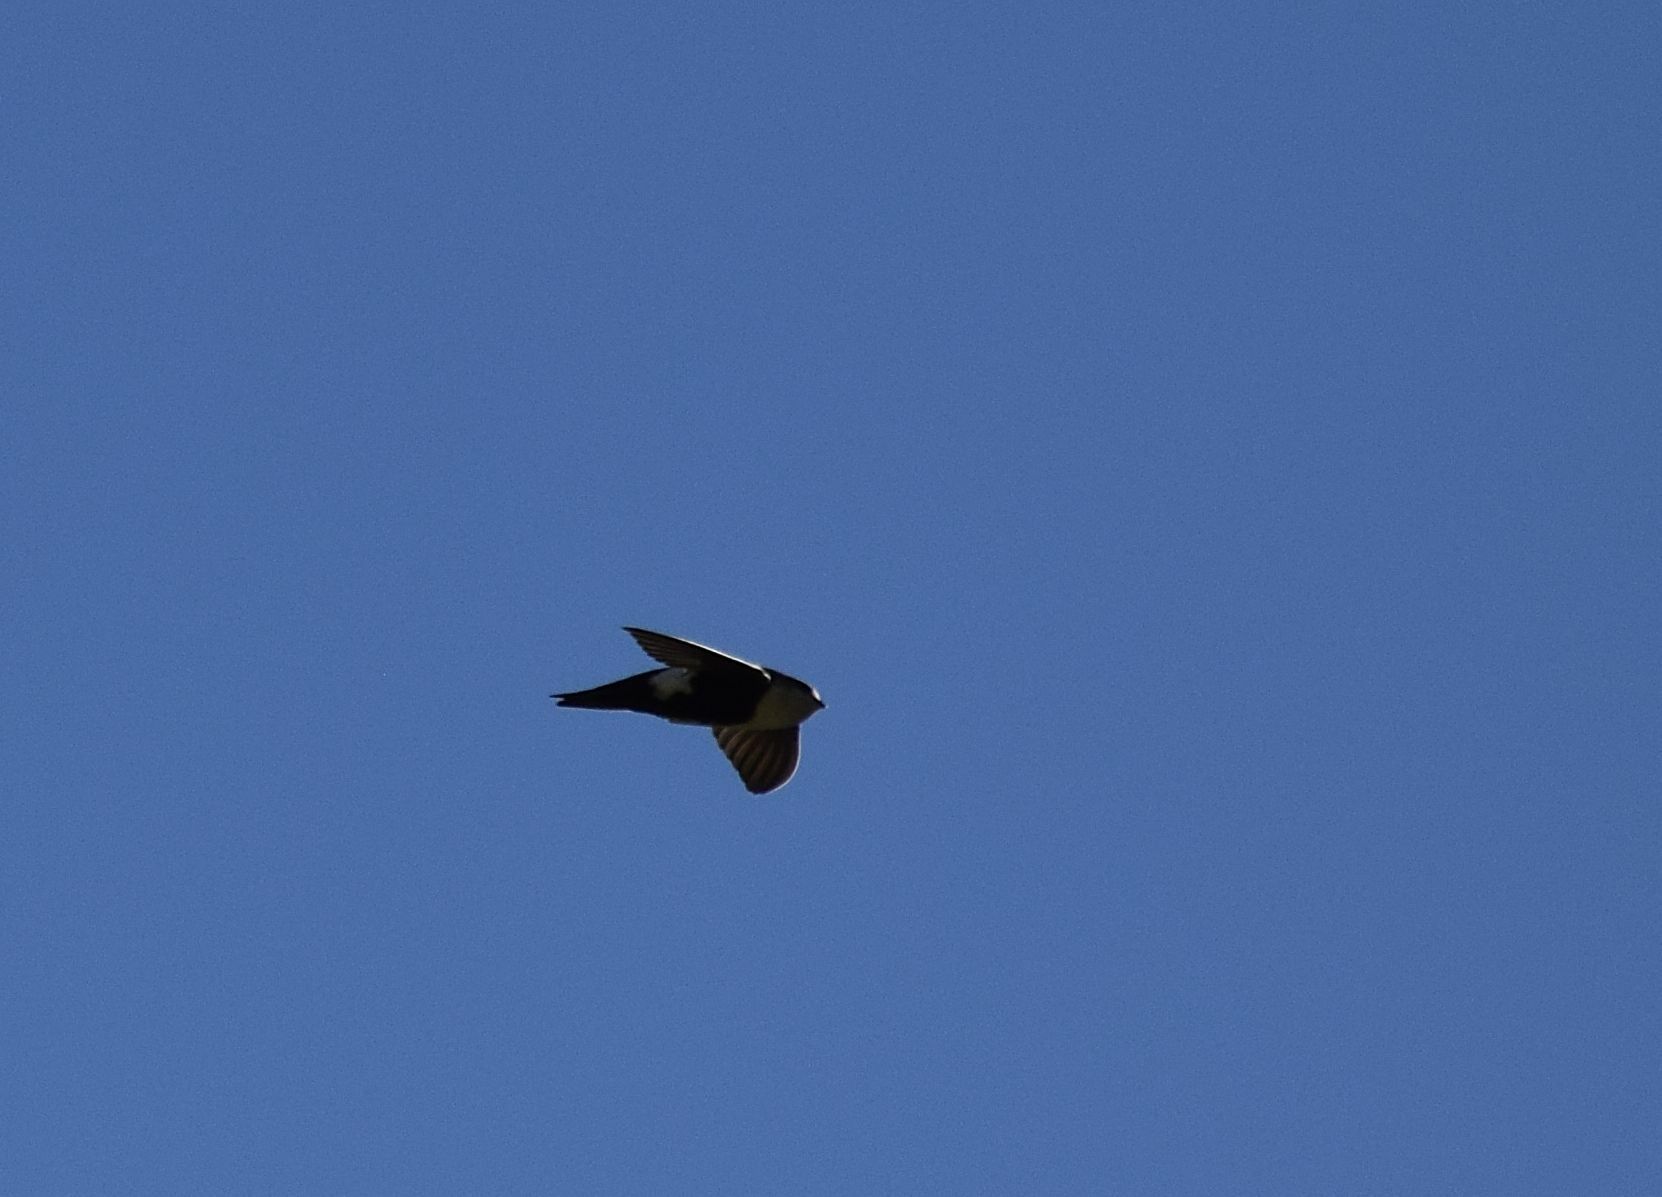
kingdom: Animalia
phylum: Chordata
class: Aves
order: Apodiformes
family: Apodidae
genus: Aeronautes
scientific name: Aeronautes saxatalis
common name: White-throated swift
